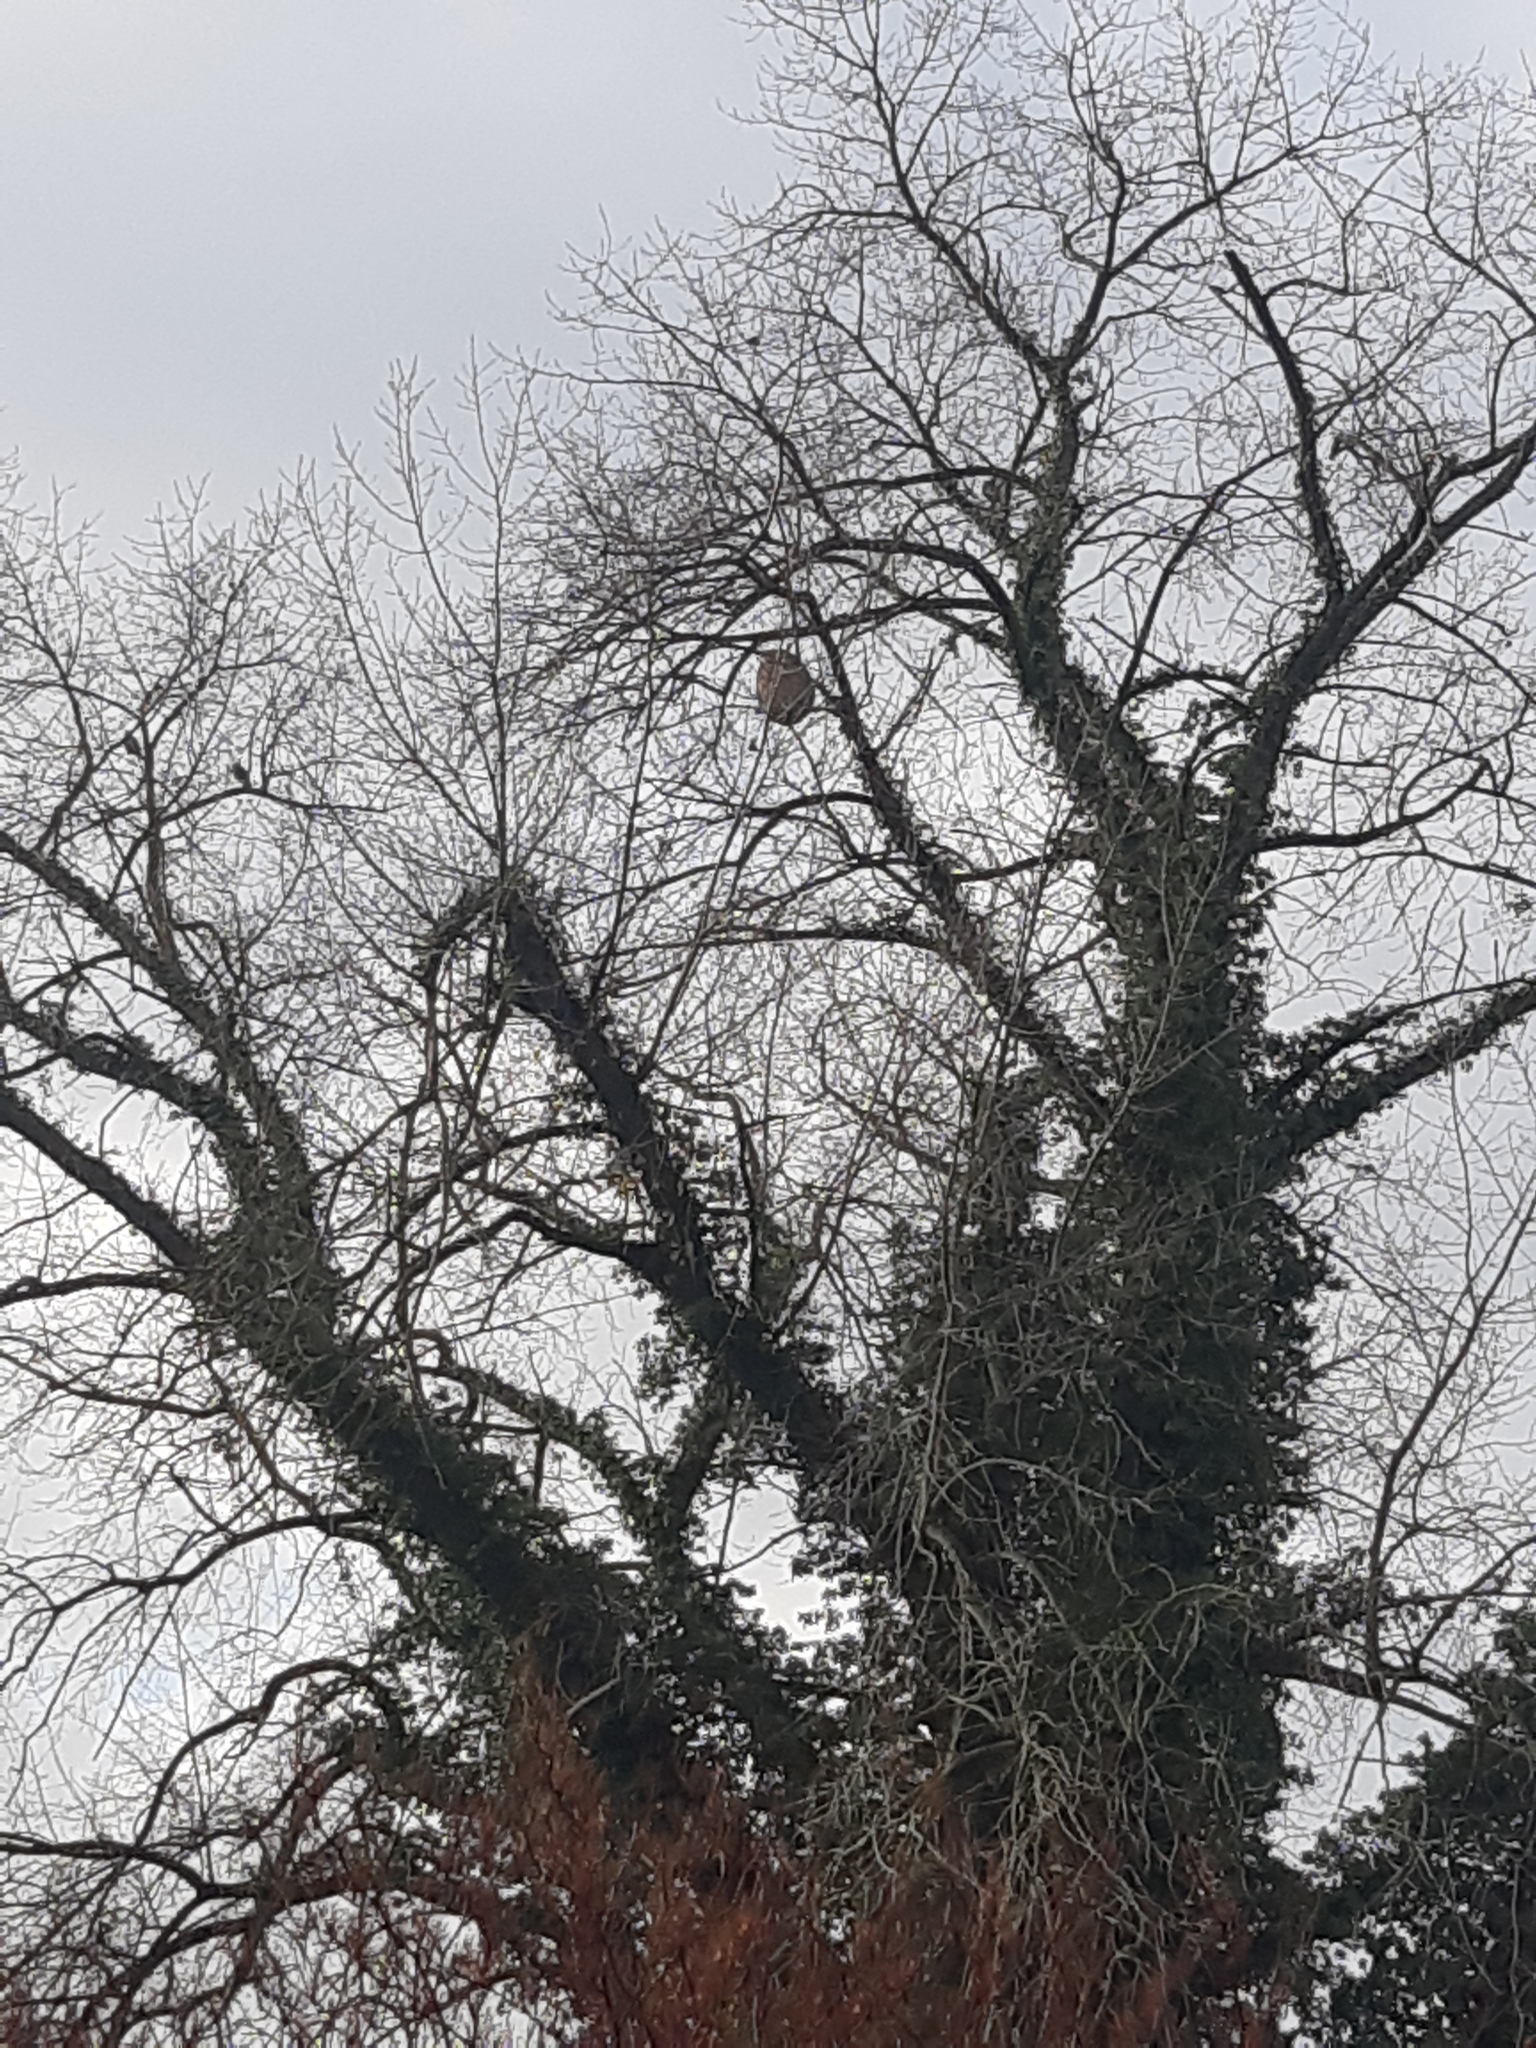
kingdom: Animalia
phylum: Arthropoda
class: Insecta
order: Hymenoptera
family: Vespidae
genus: Vespa
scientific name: Vespa velutina
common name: Asian hornet
